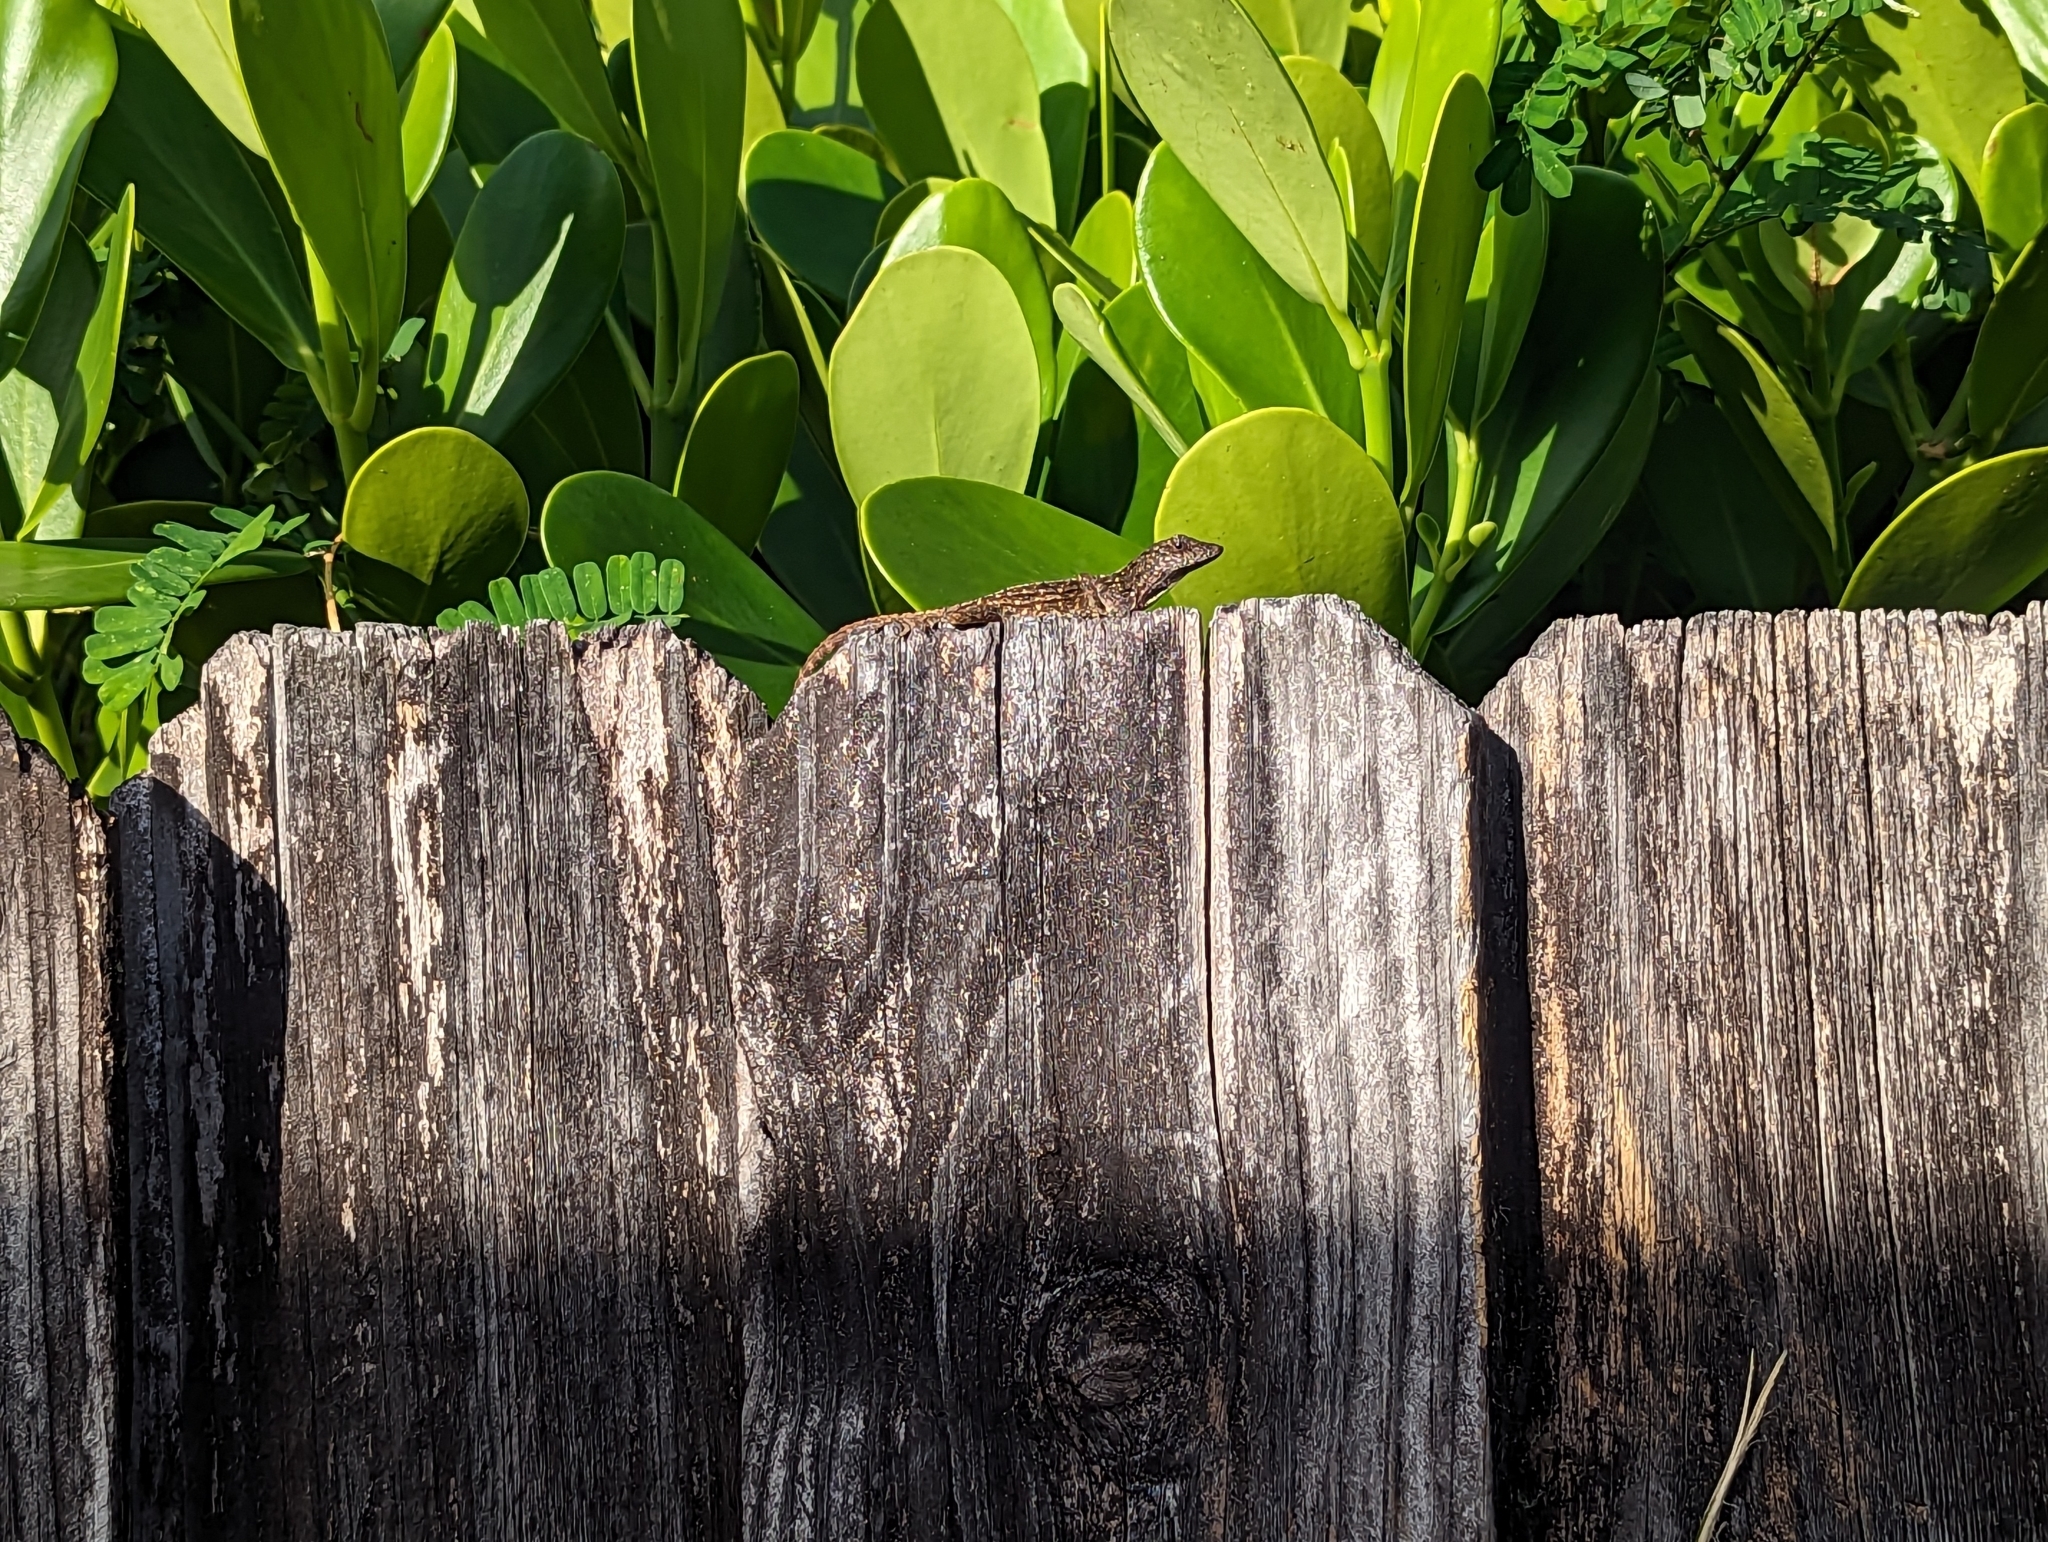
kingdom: Animalia
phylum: Chordata
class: Squamata
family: Dactyloidae
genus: Anolis
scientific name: Anolis sagrei
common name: Brown anole
